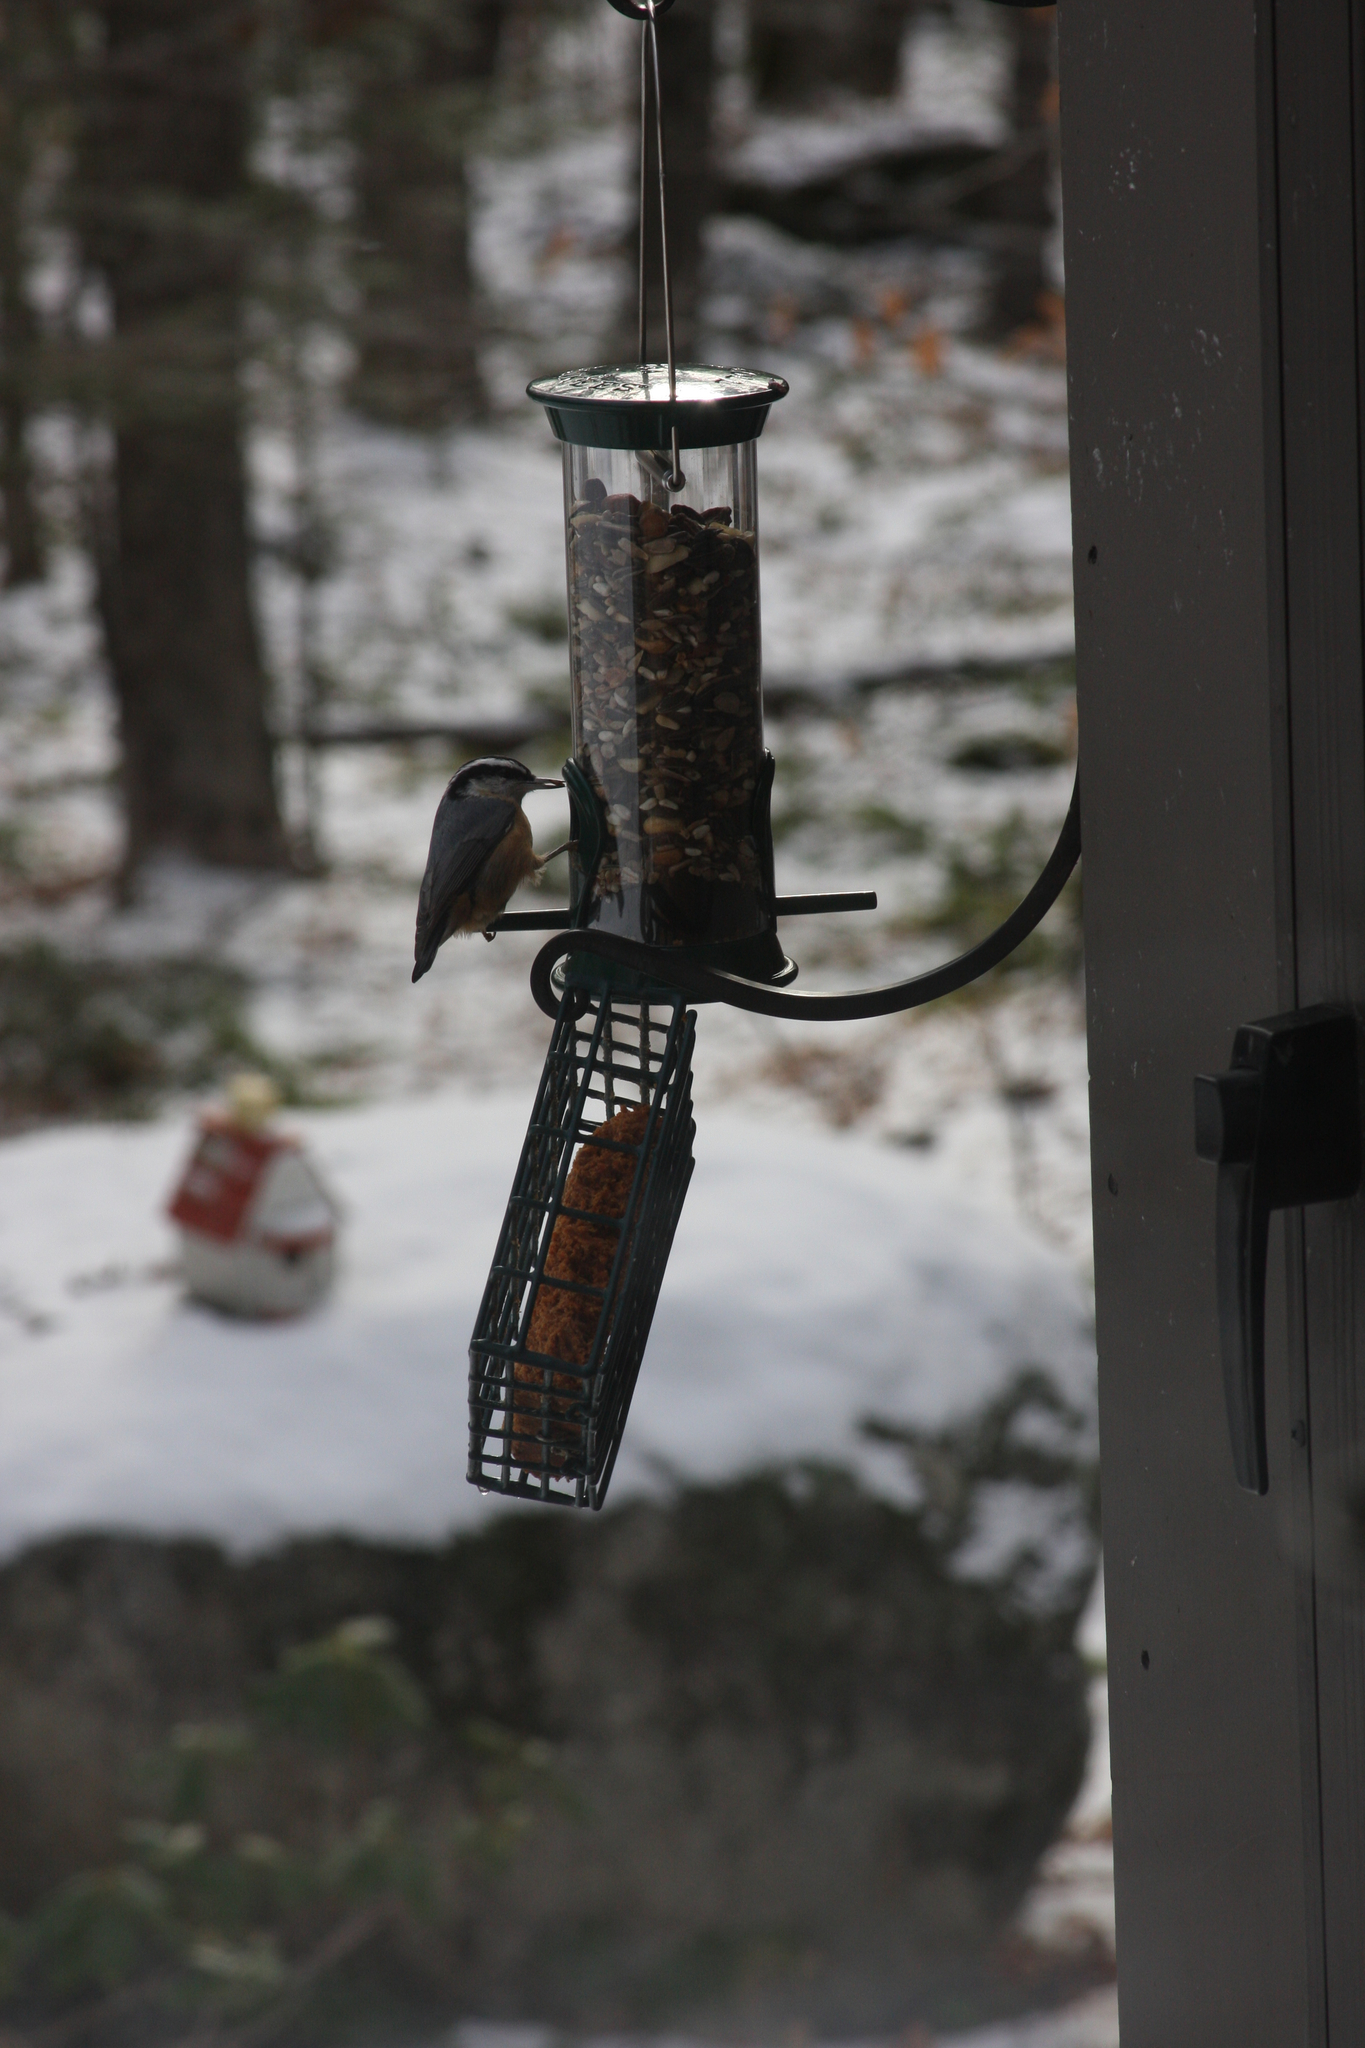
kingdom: Animalia
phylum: Chordata
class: Aves
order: Passeriformes
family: Sittidae
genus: Sitta
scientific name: Sitta canadensis
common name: Red-breasted nuthatch
